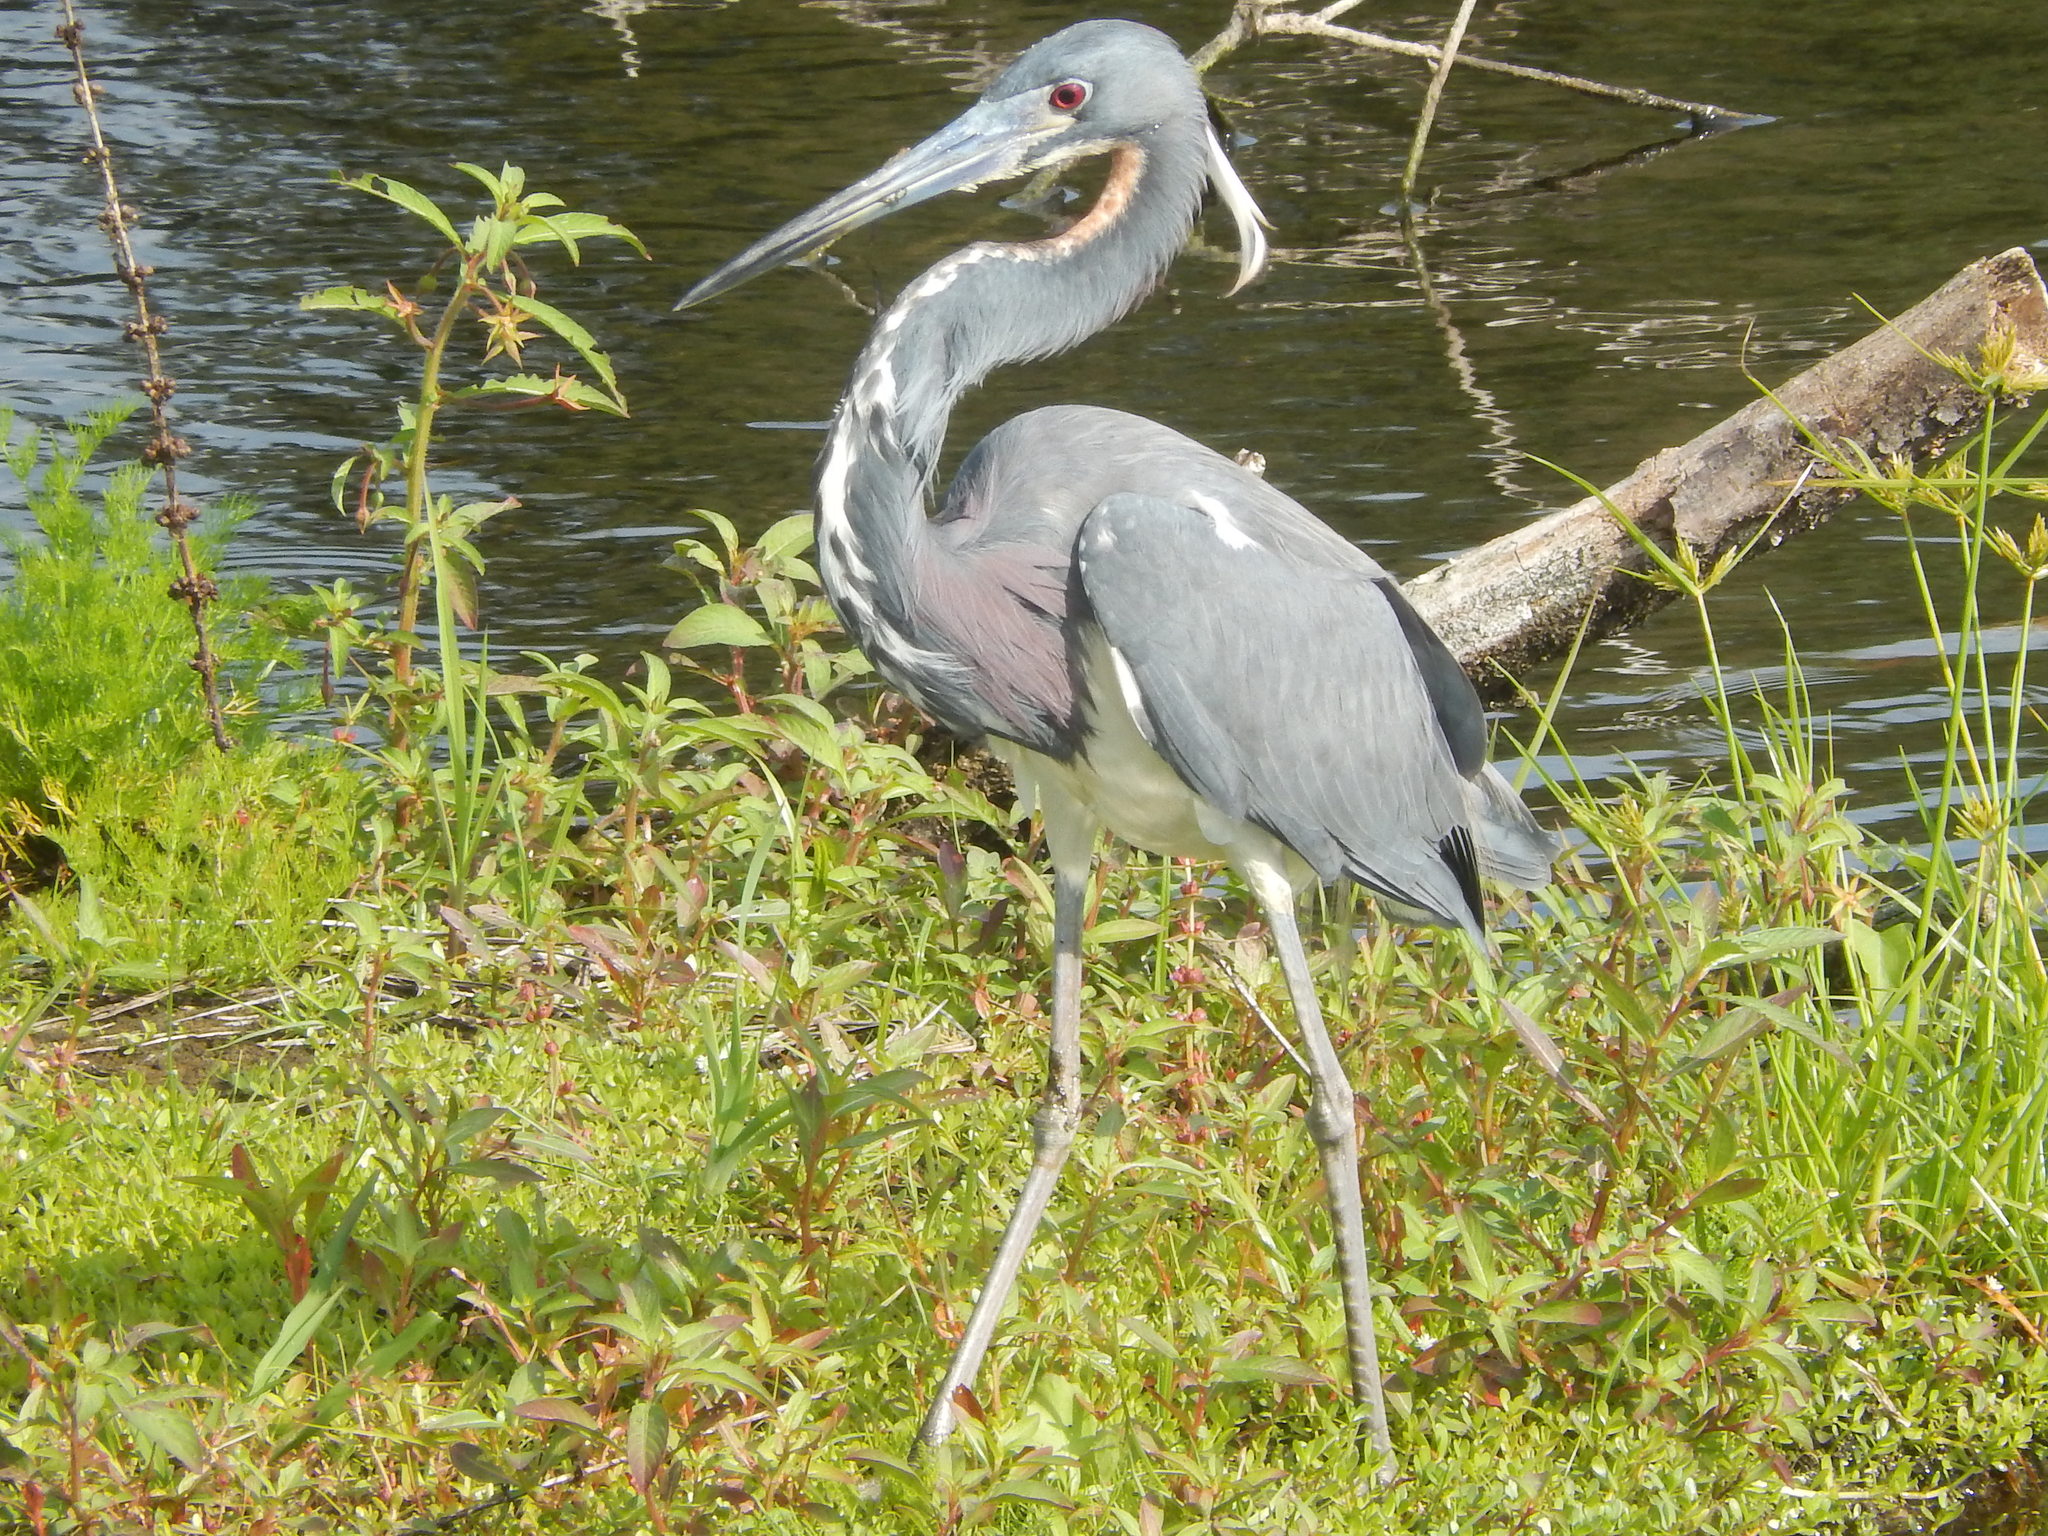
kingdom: Animalia
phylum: Chordata
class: Aves
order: Pelecaniformes
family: Ardeidae
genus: Egretta
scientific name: Egretta tricolor
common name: Tricolored heron
